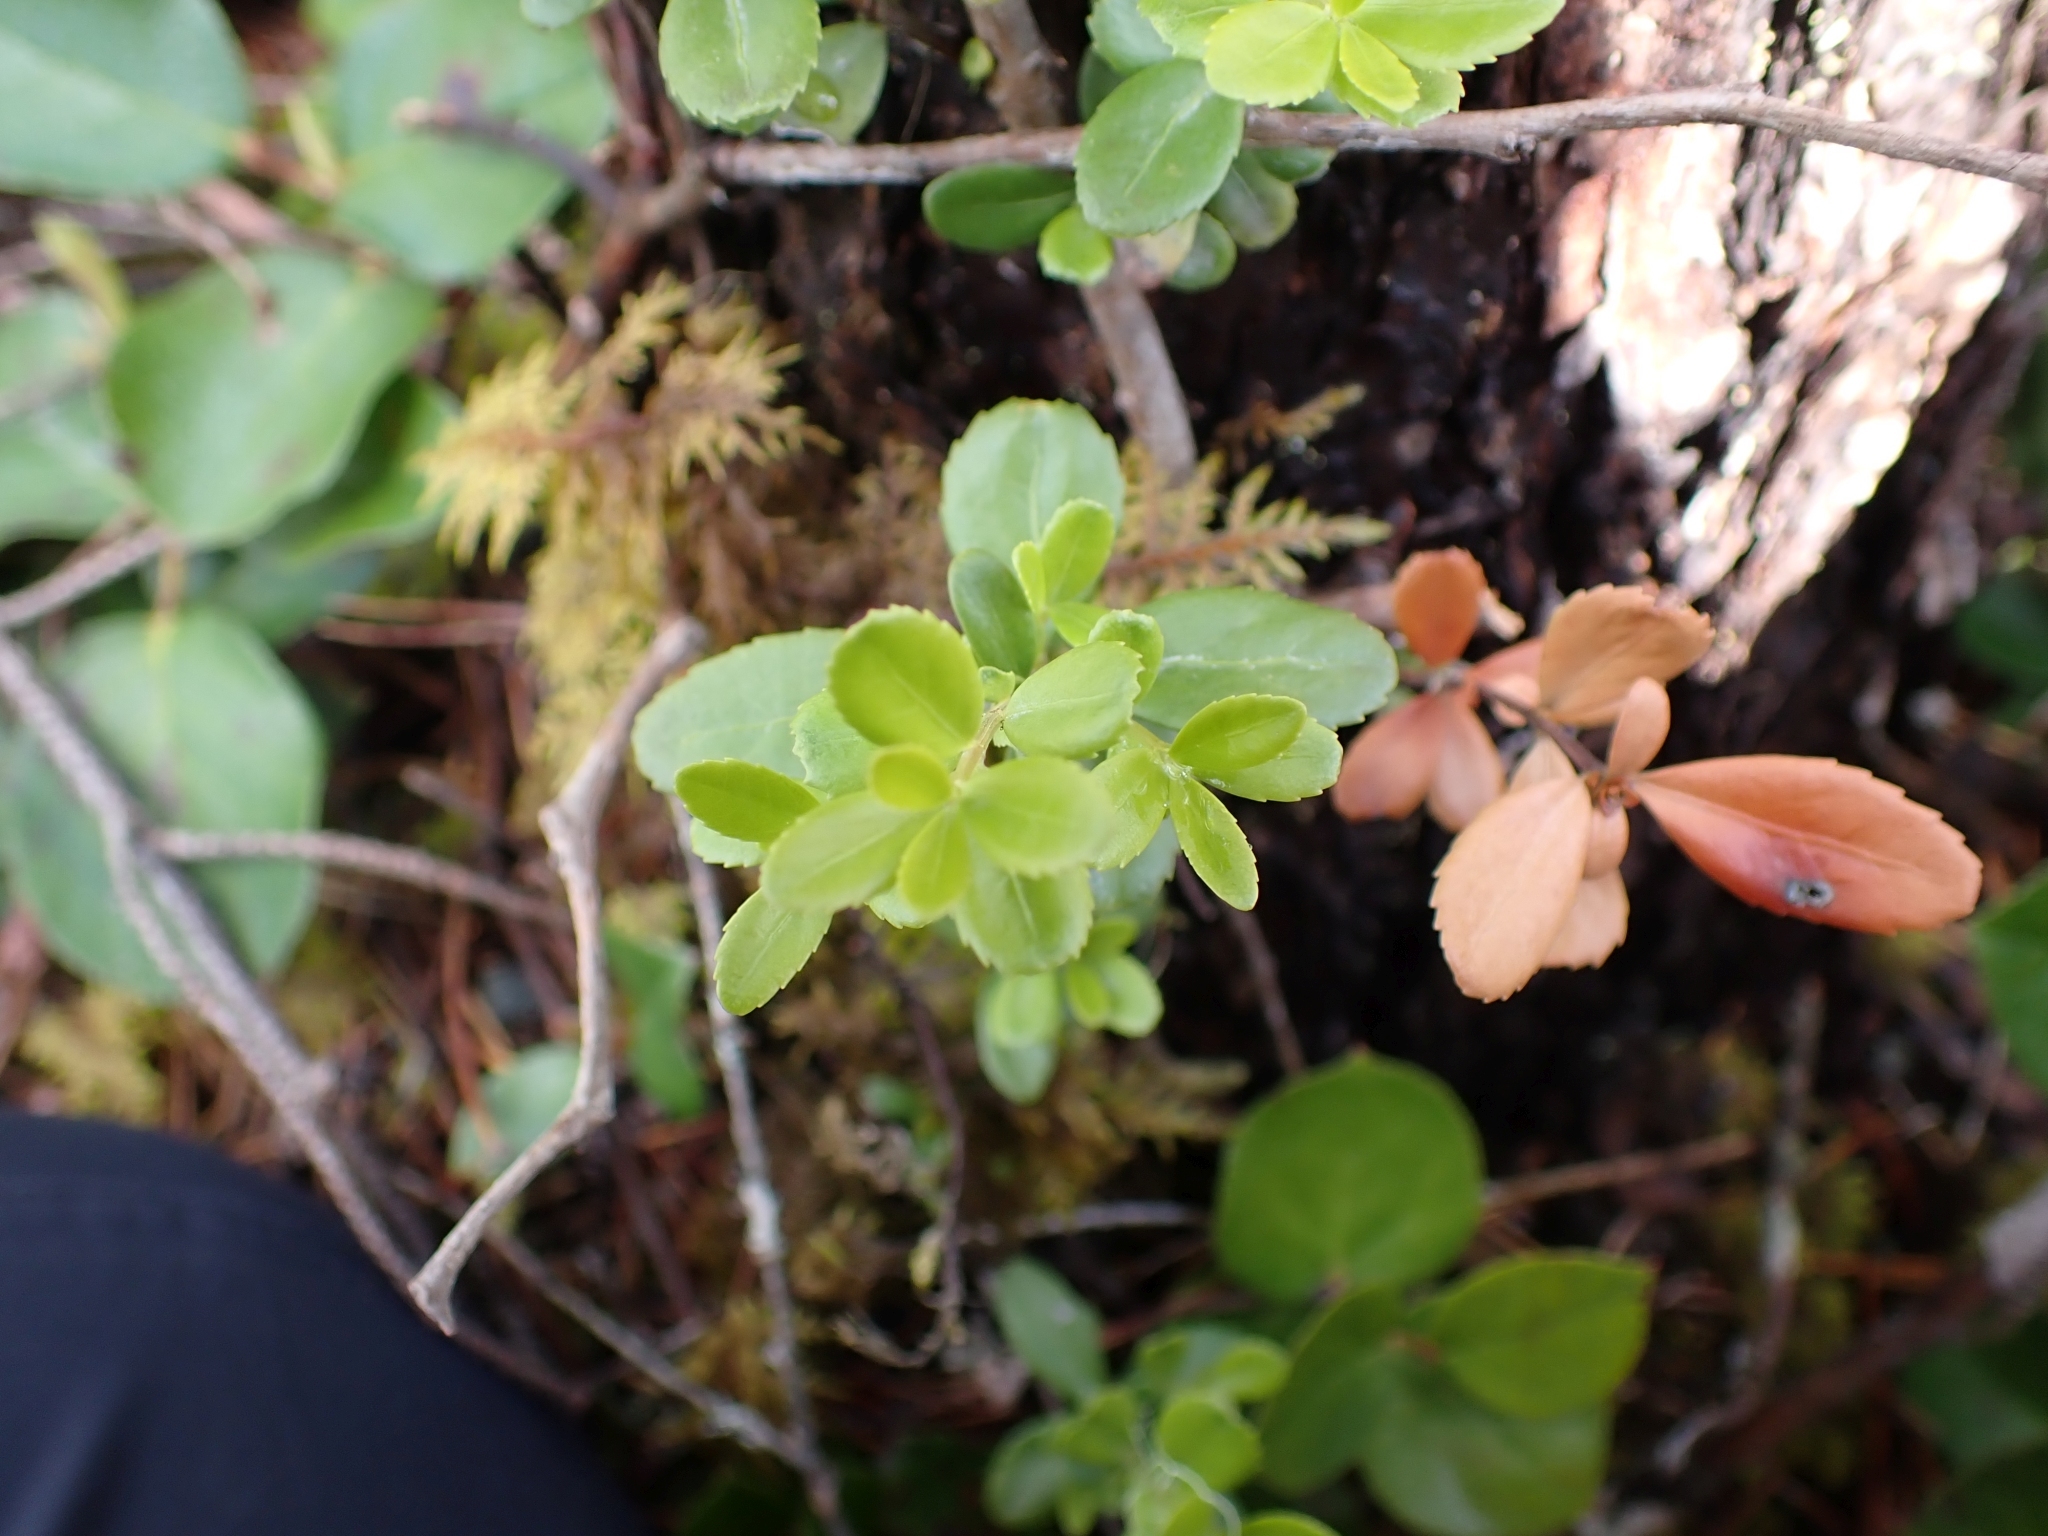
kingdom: Plantae
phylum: Tracheophyta
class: Magnoliopsida
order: Celastrales
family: Celastraceae
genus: Paxistima
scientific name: Paxistima myrsinites
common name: Mountain-lover
